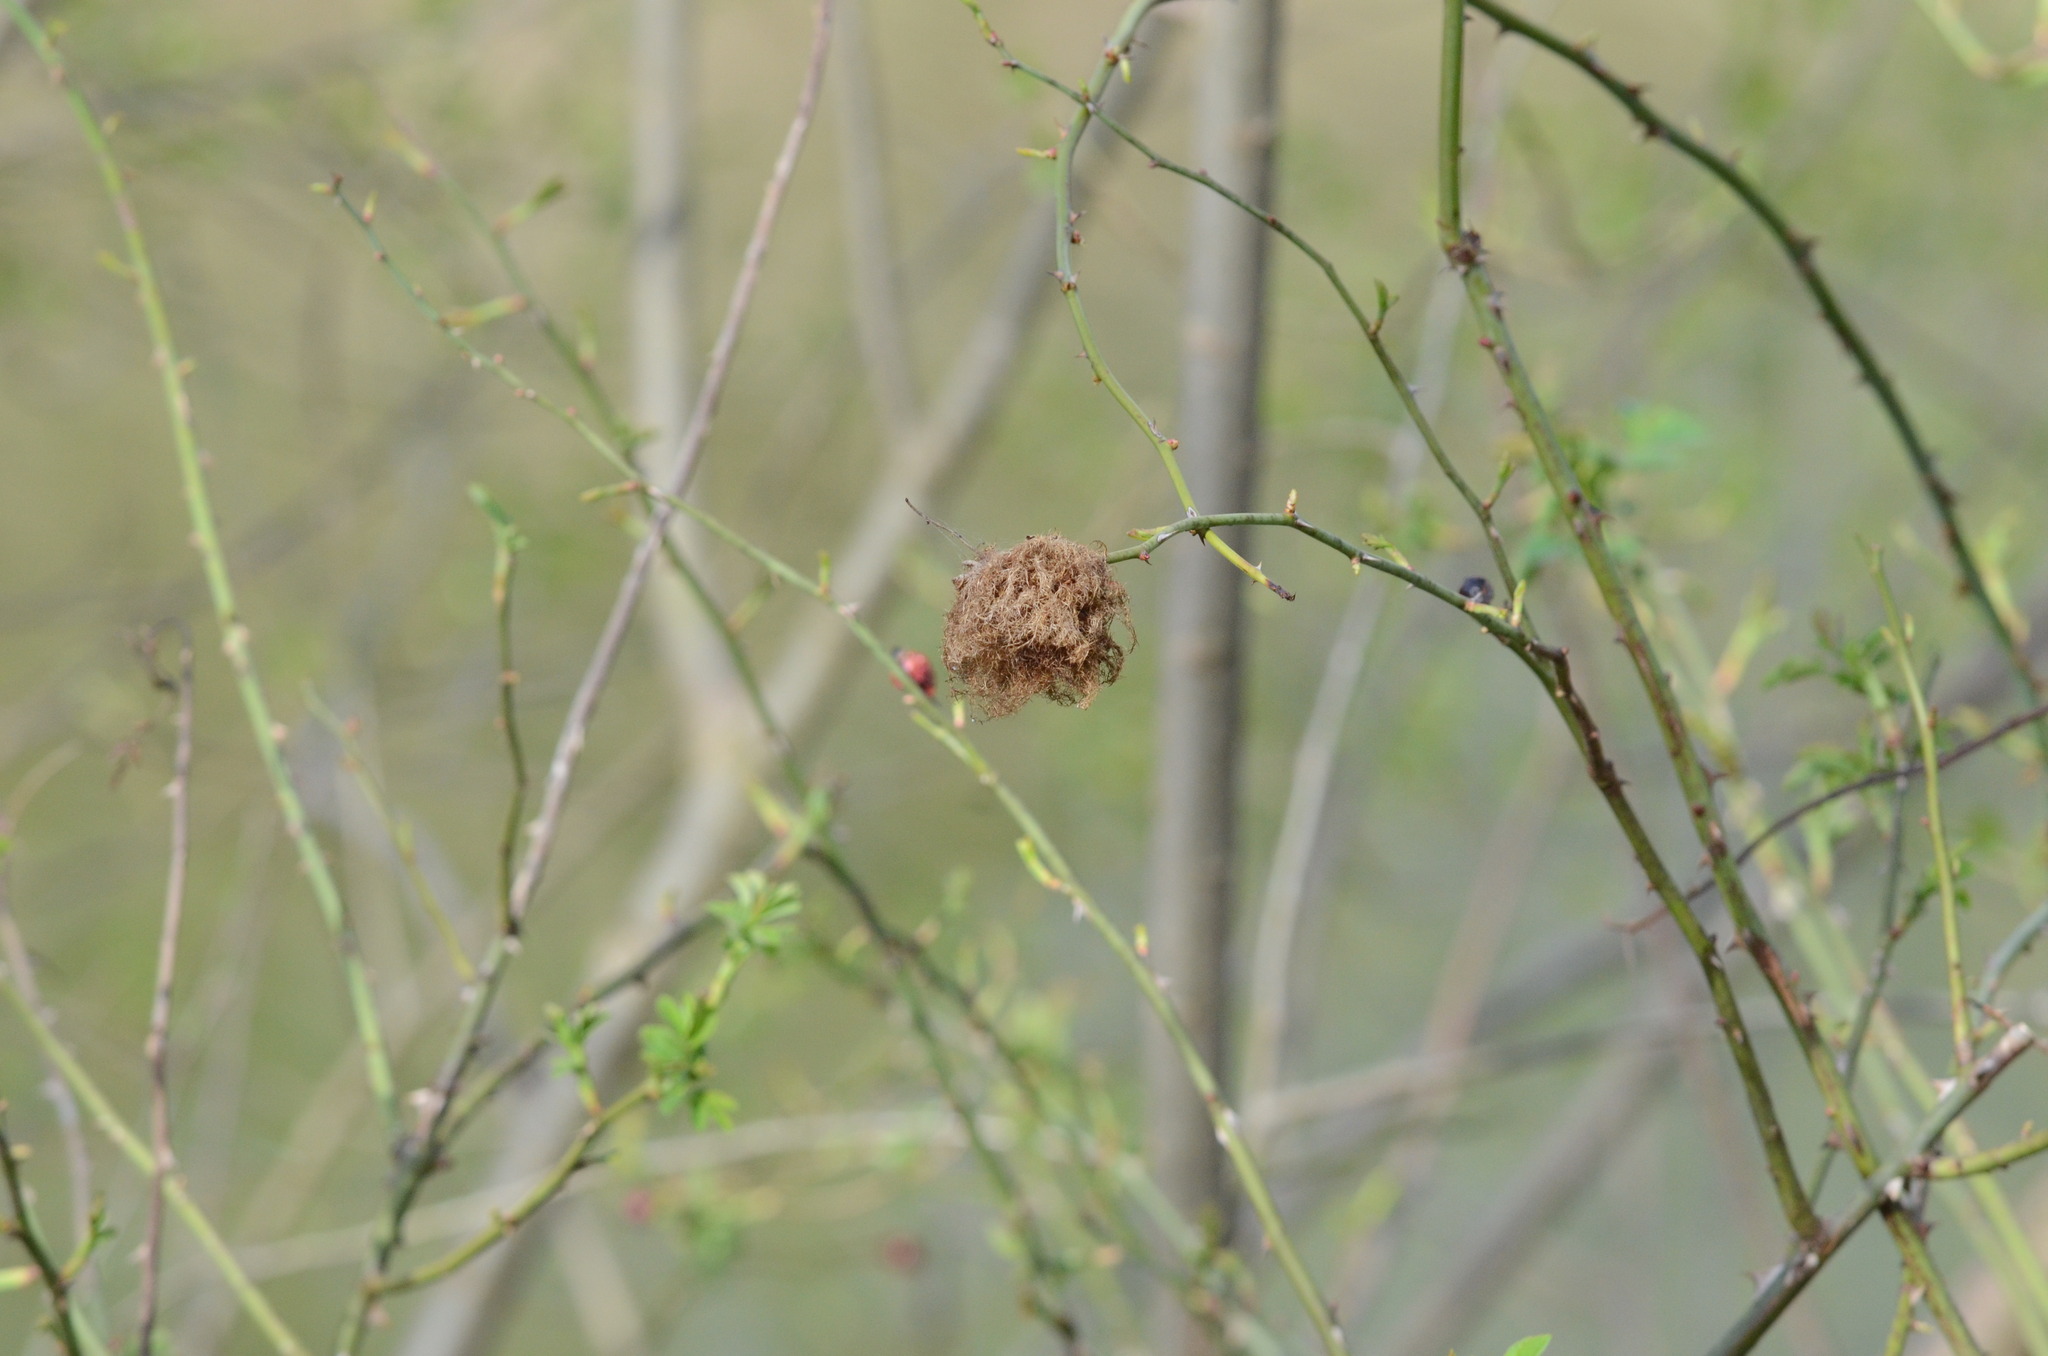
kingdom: Animalia
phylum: Arthropoda
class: Insecta
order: Hymenoptera
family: Cynipidae
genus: Diplolepis
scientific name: Diplolepis rosae
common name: Bedeguar gall
